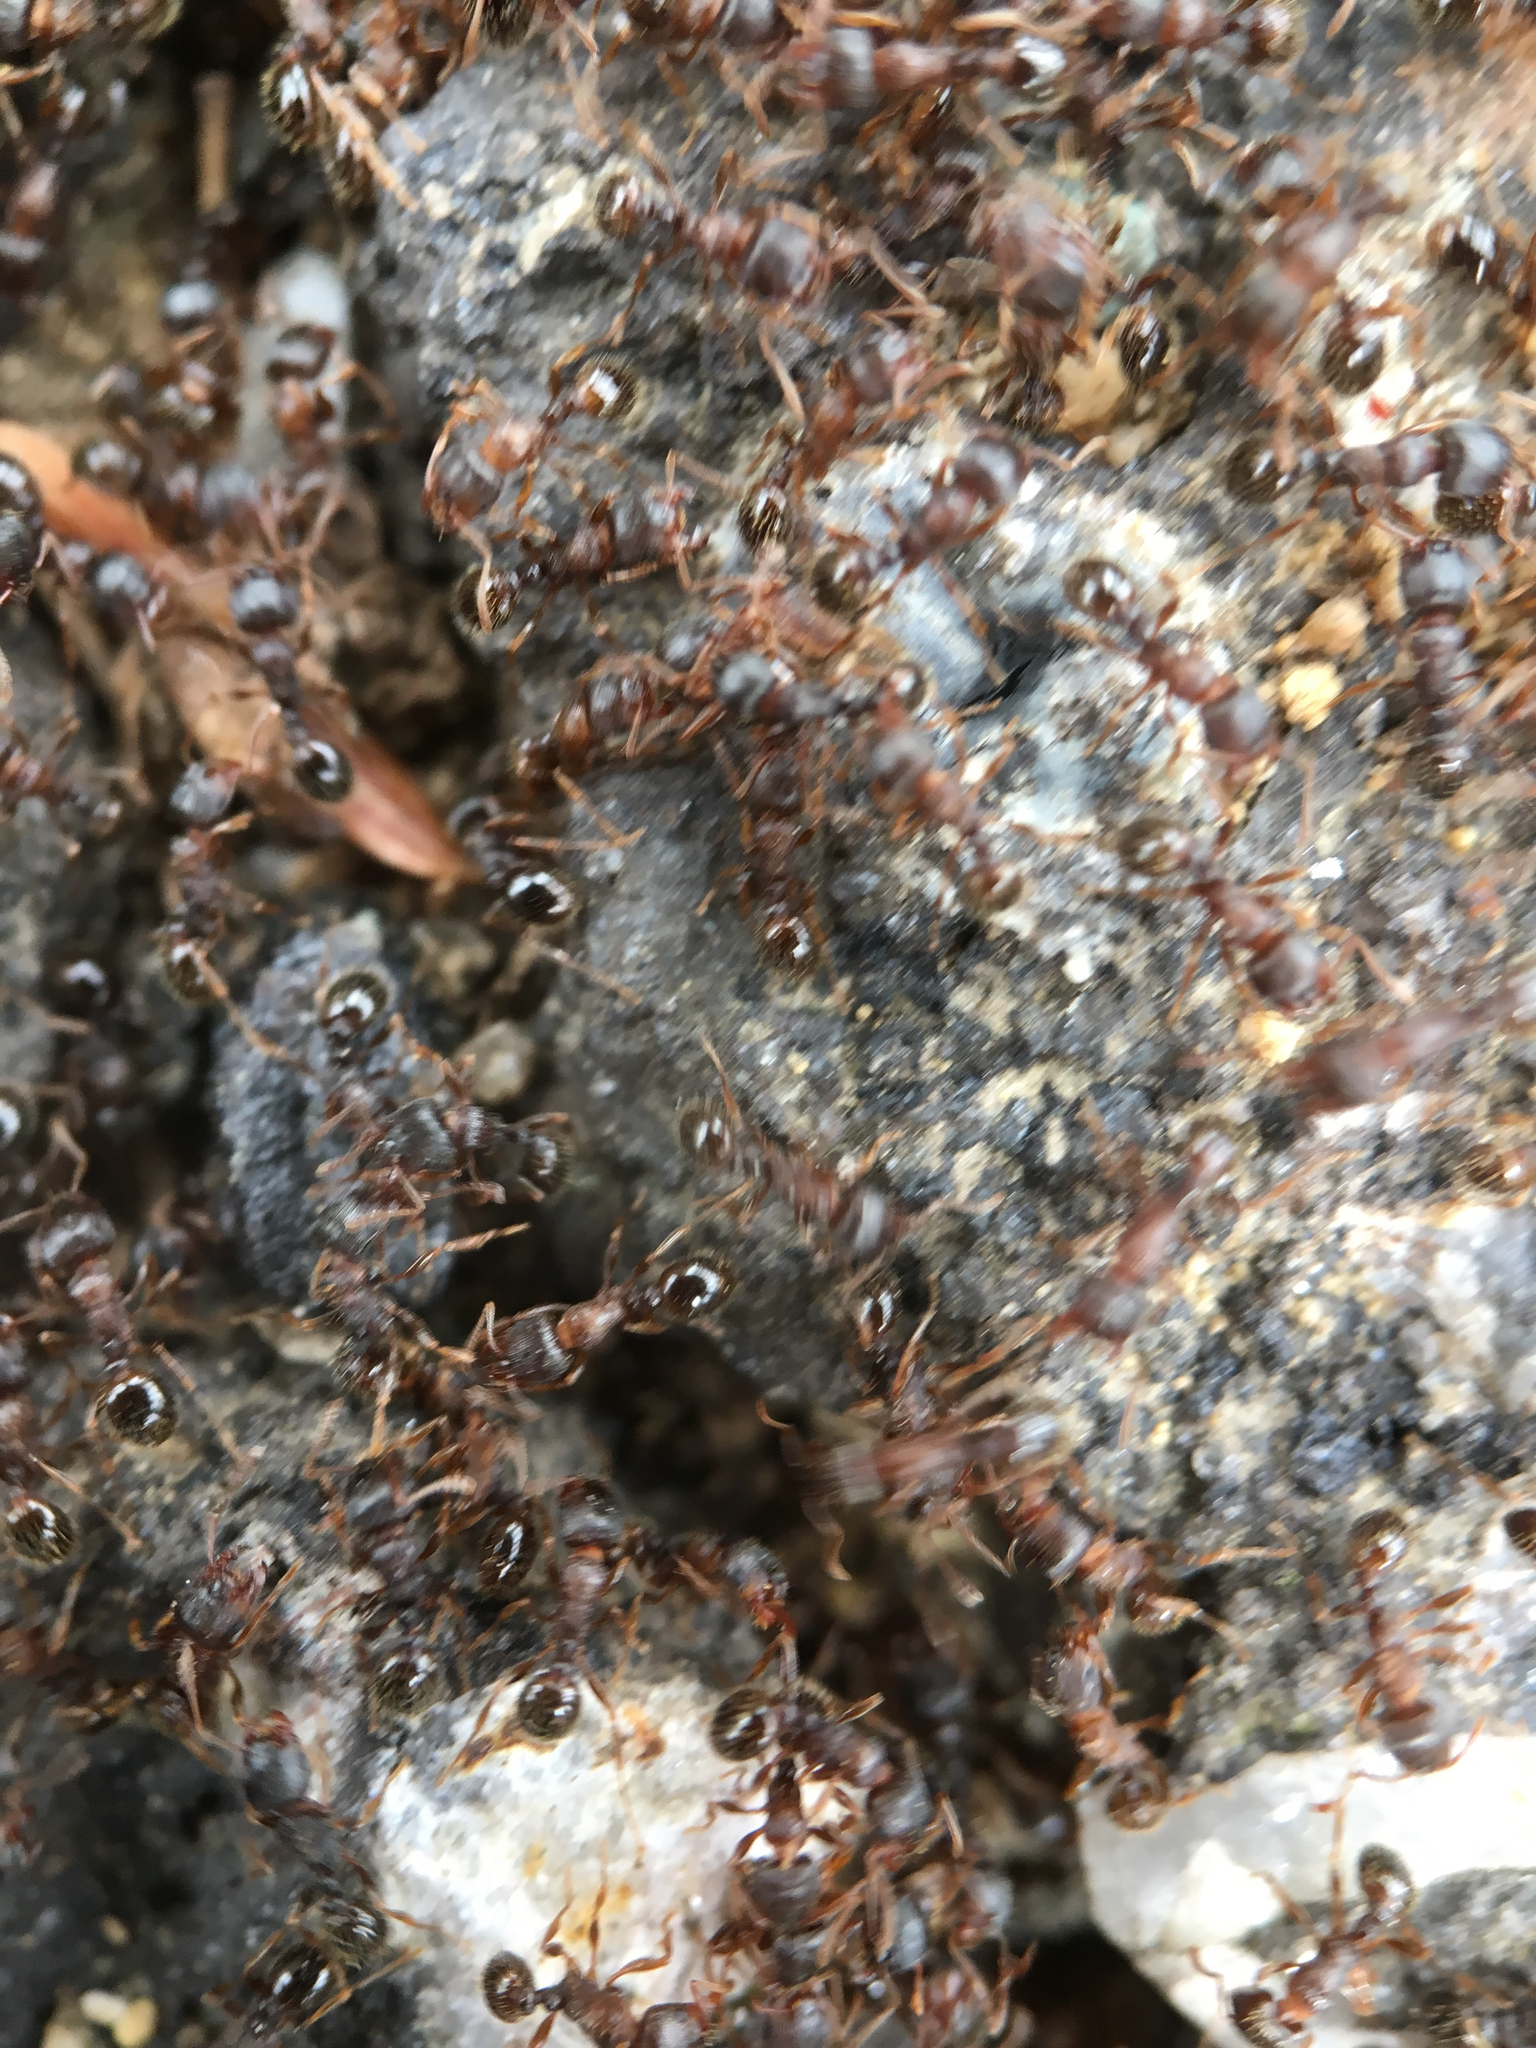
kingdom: Animalia
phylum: Arthropoda
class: Insecta
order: Hymenoptera
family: Formicidae
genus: Tetramorium
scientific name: Tetramorium immigrans
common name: Pavement ant
